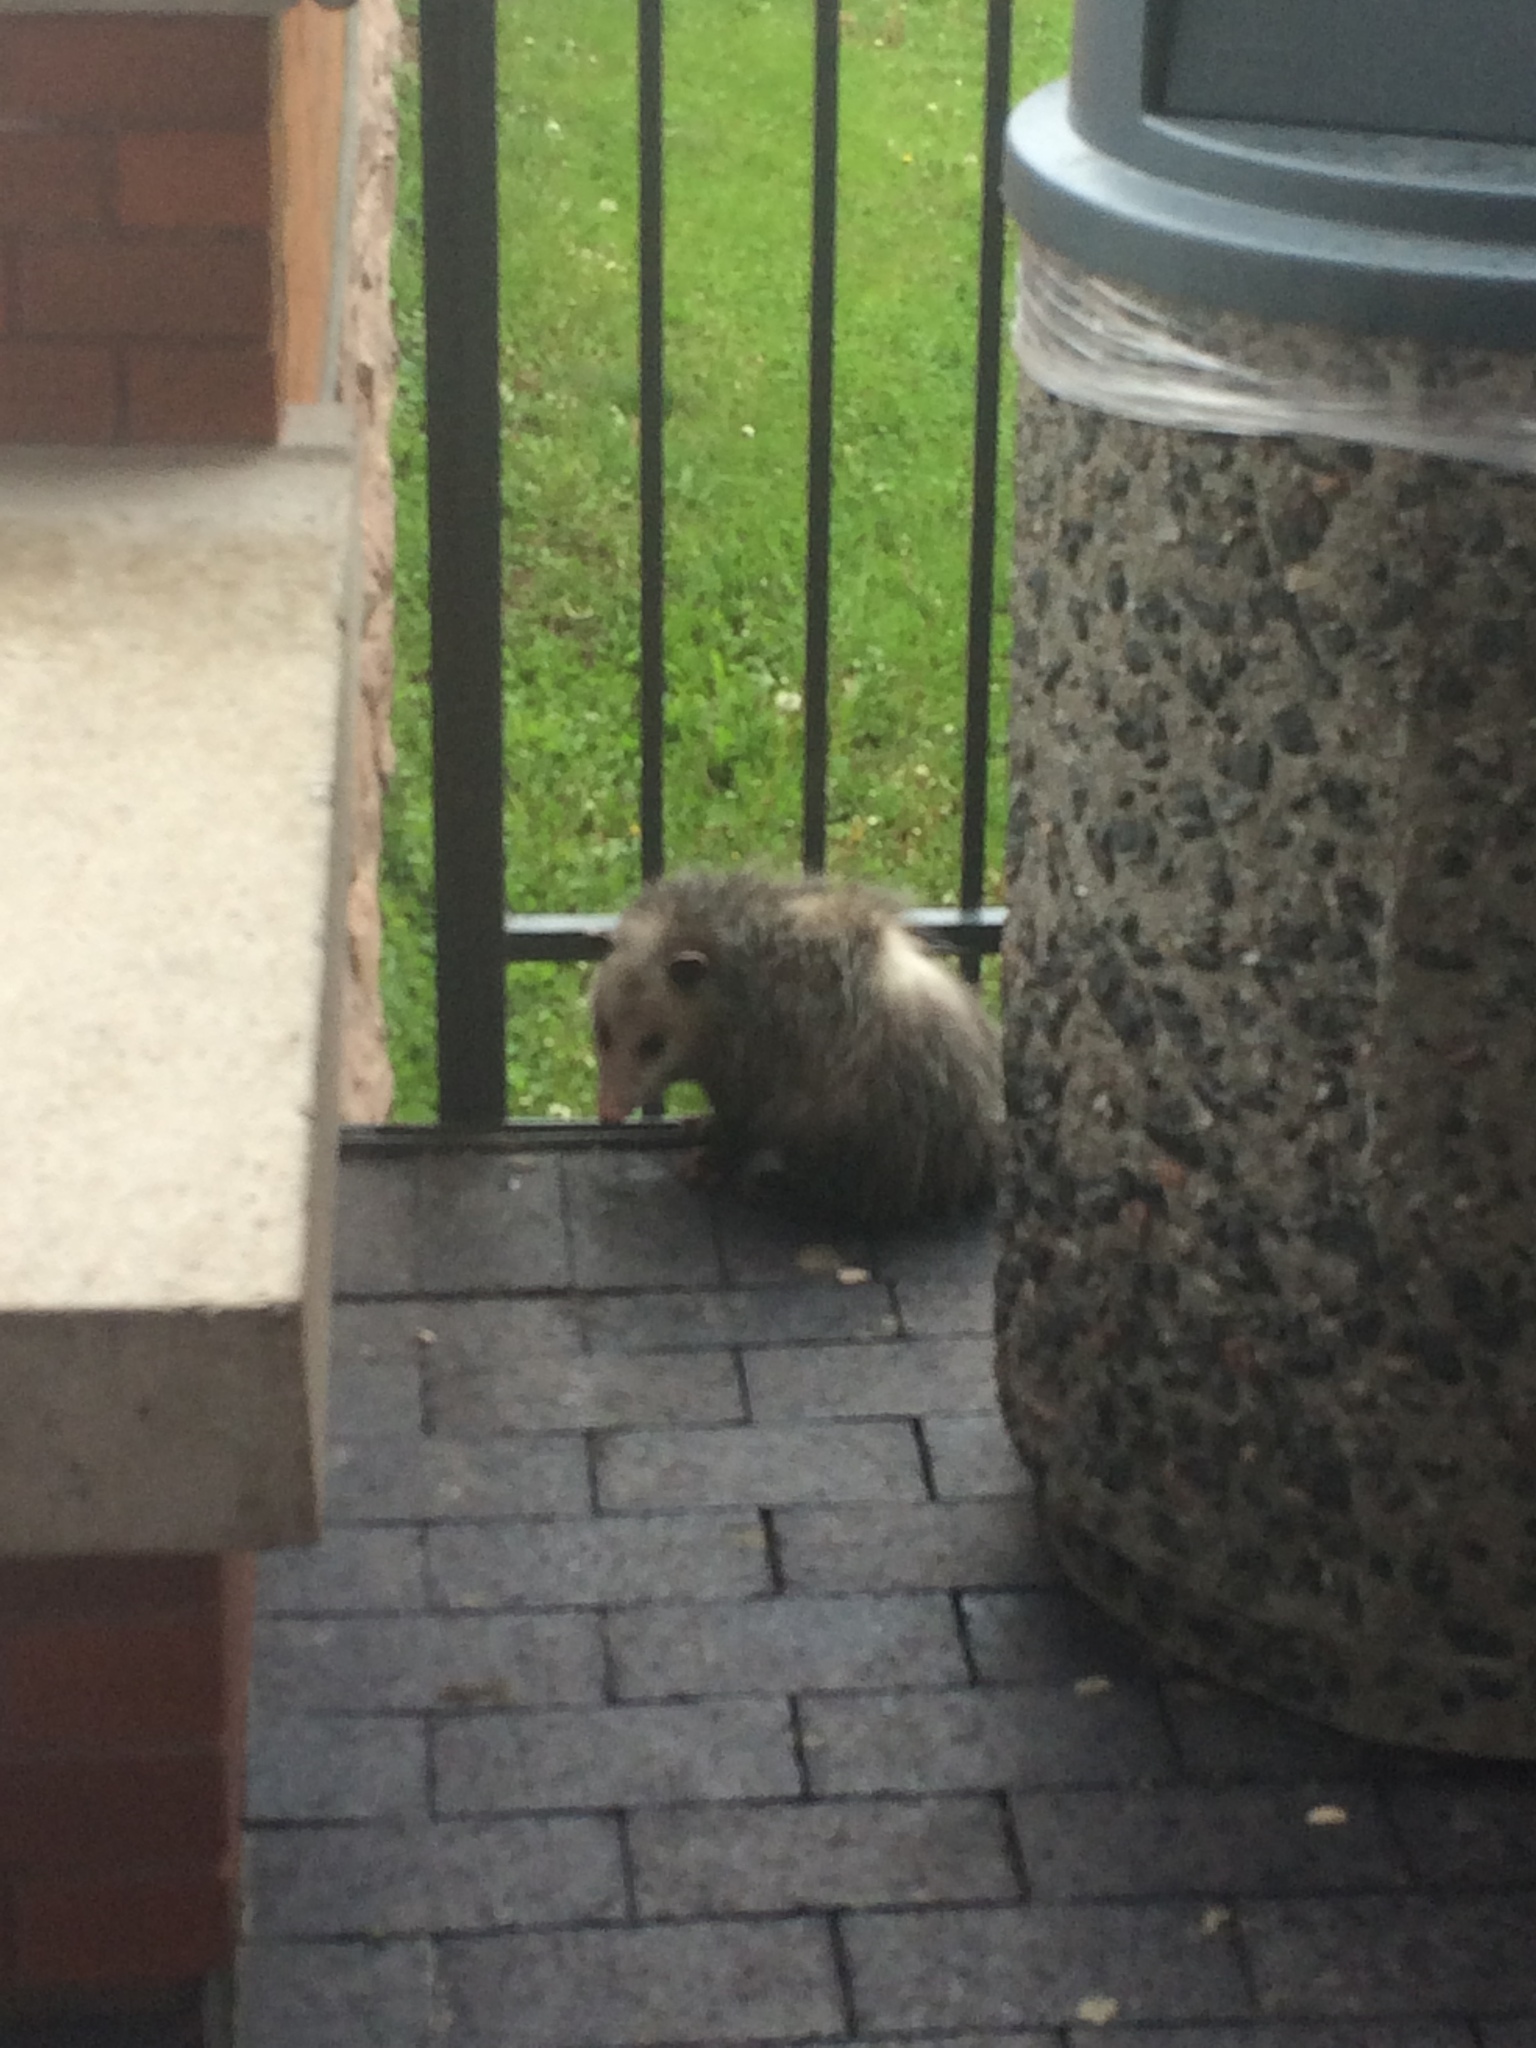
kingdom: Animalia
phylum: Chordata
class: Mammalia
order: Didelphimorphia
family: Didelphidae
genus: Didelphis
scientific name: Didelphis virginiana
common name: Virginia opossum
